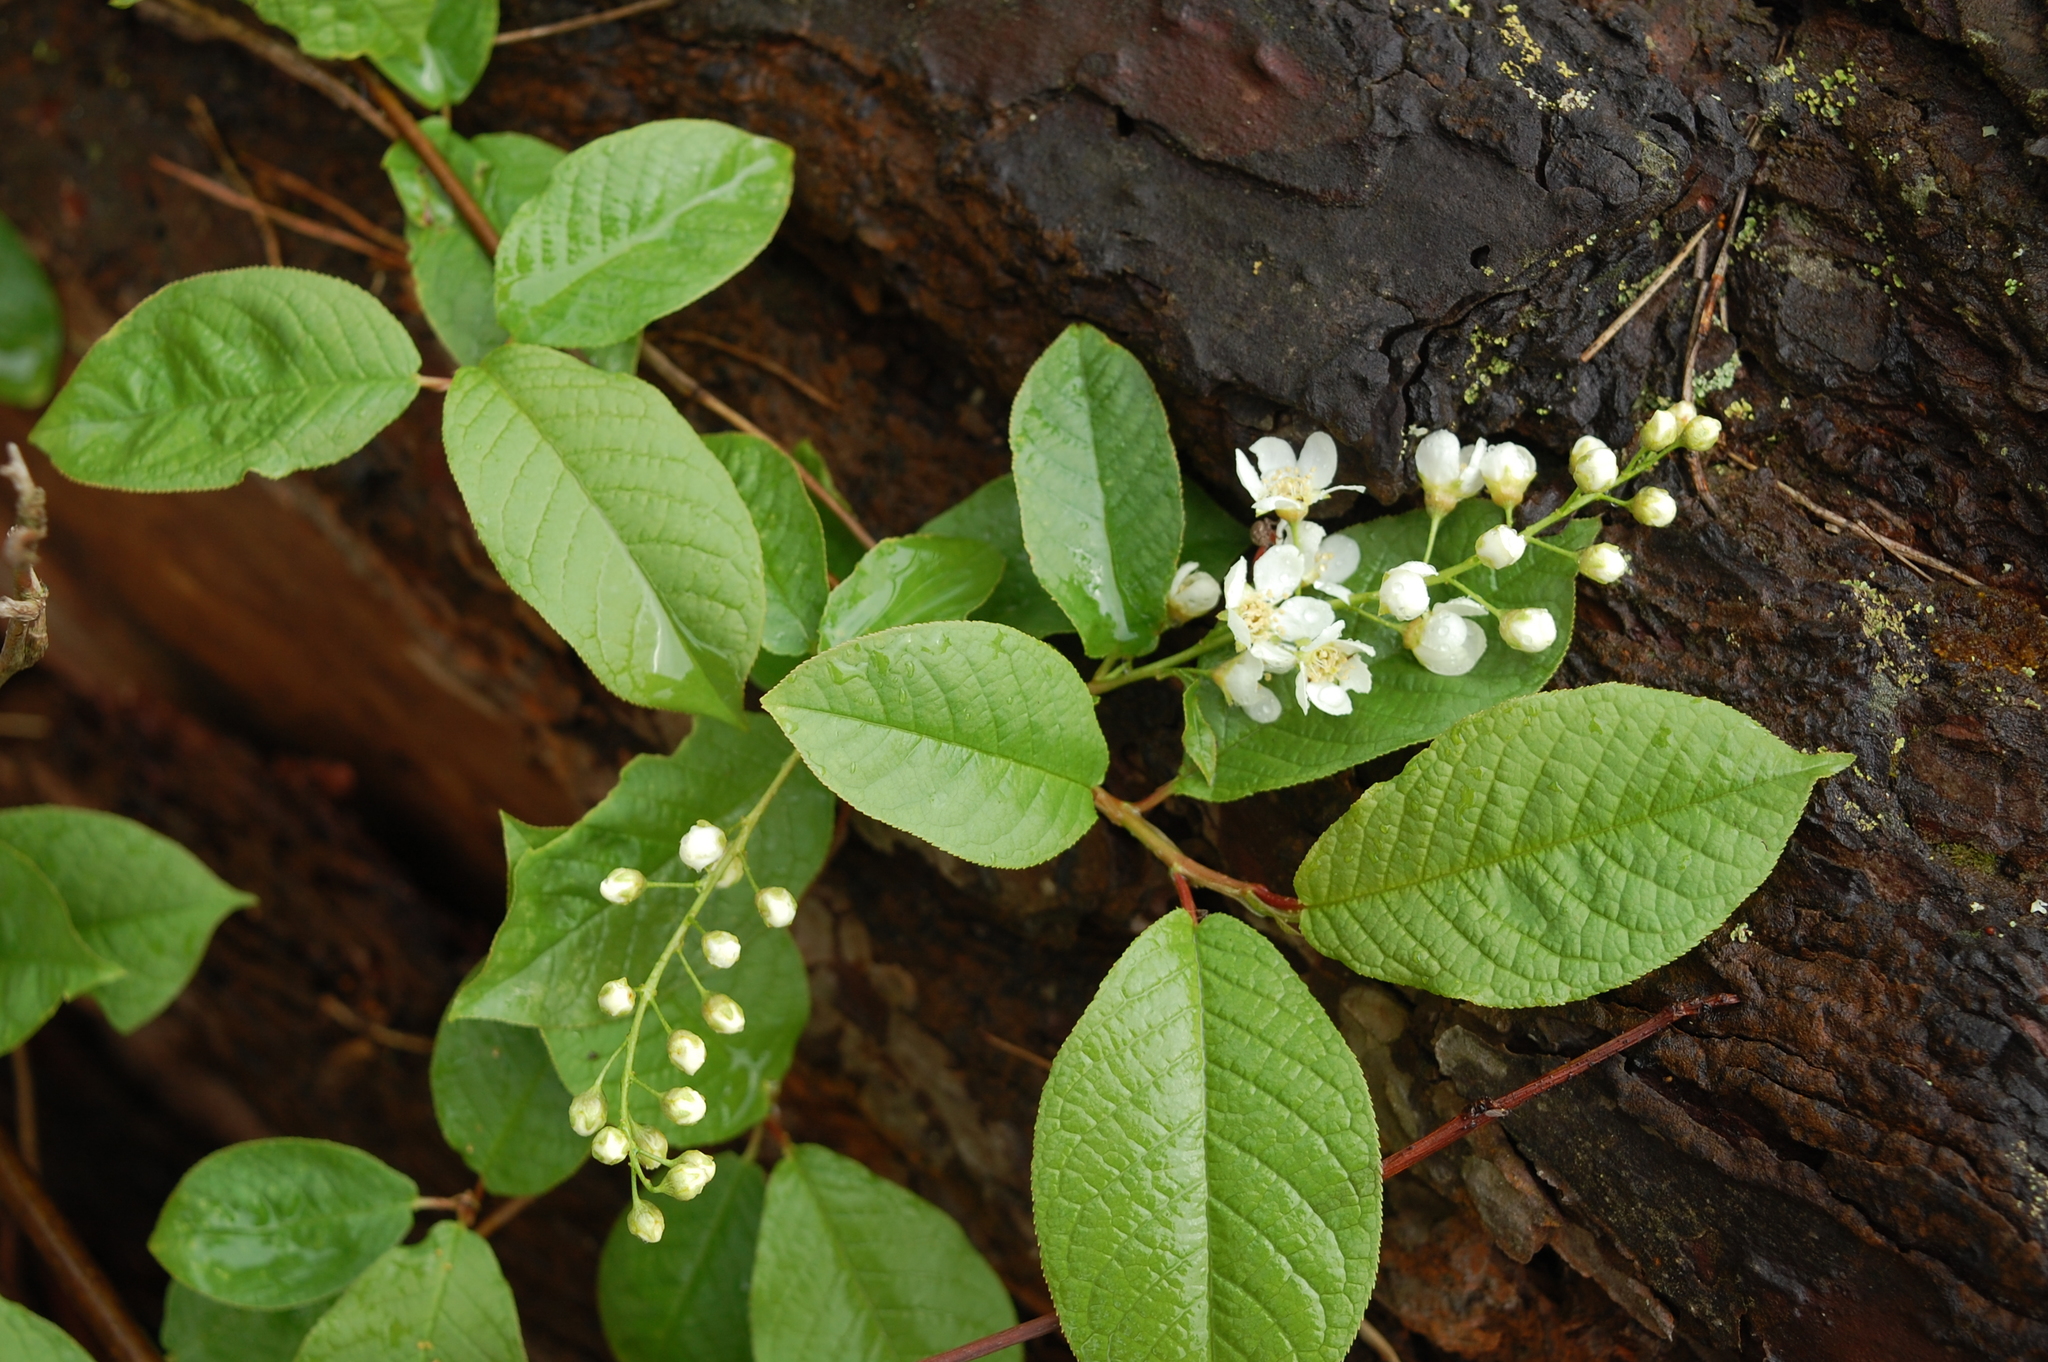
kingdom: Plantae
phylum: Tracheophyta
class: Magnoliopsida
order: Rosales
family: Rosaceae
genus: Prunus
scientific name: Prunus padus
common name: Bird cherry
